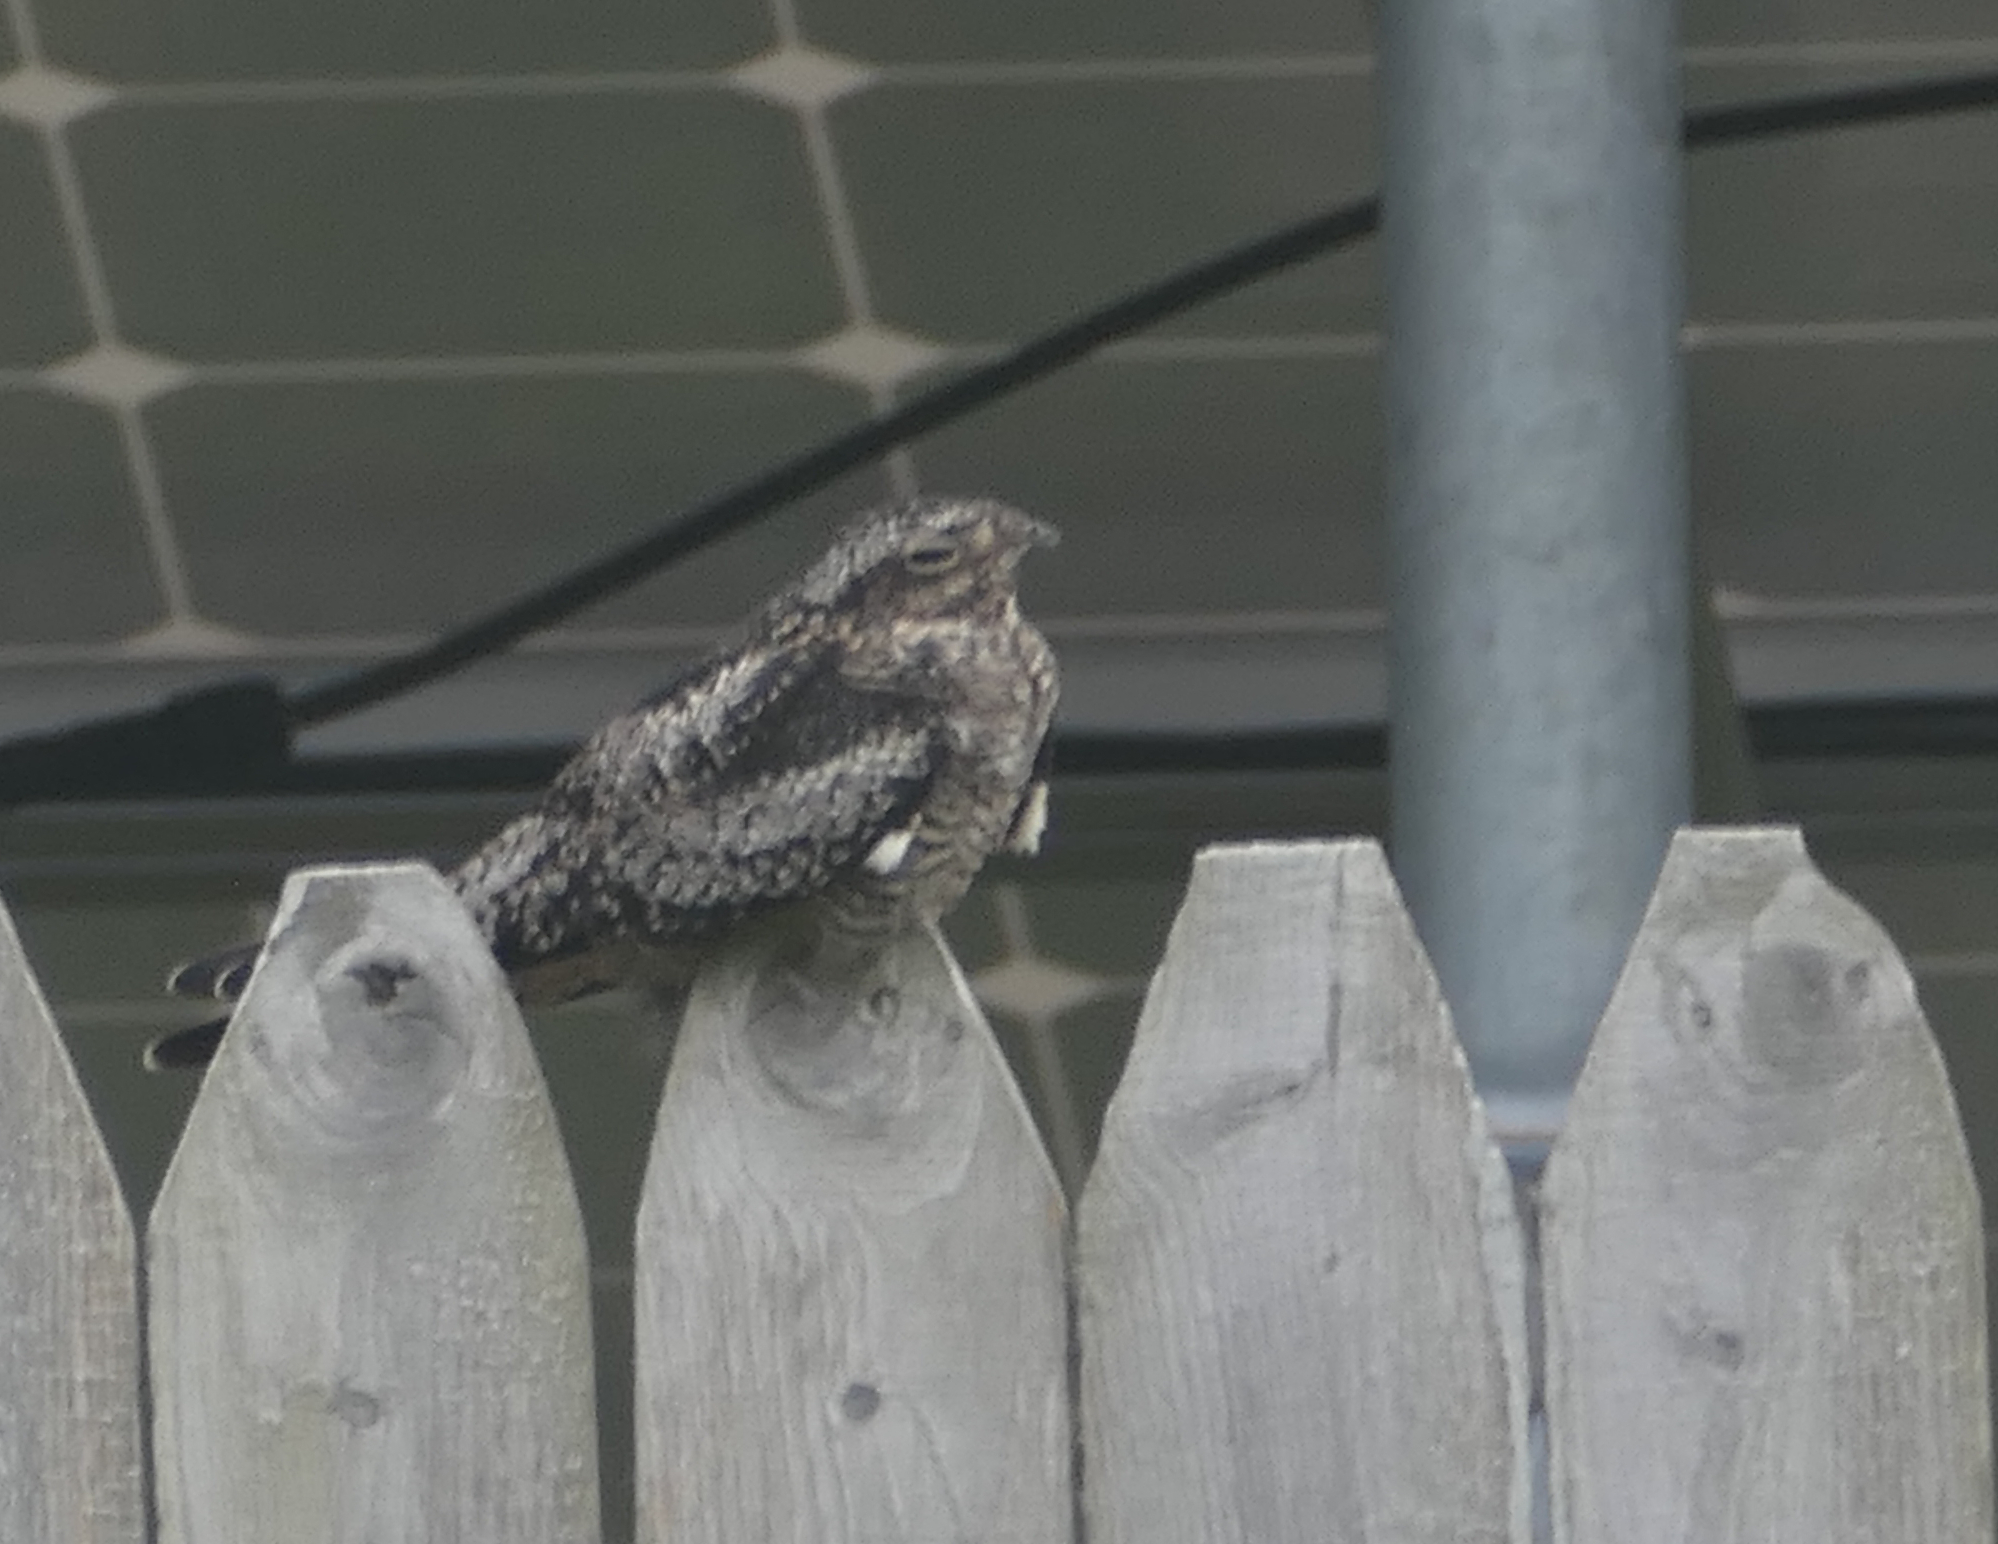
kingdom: Animalia
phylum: Chordata
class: Aves
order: Caprimulgiformes
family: Caprimulgidae
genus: Chordeiles
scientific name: Chordeiles minor
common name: Common nighthawk
